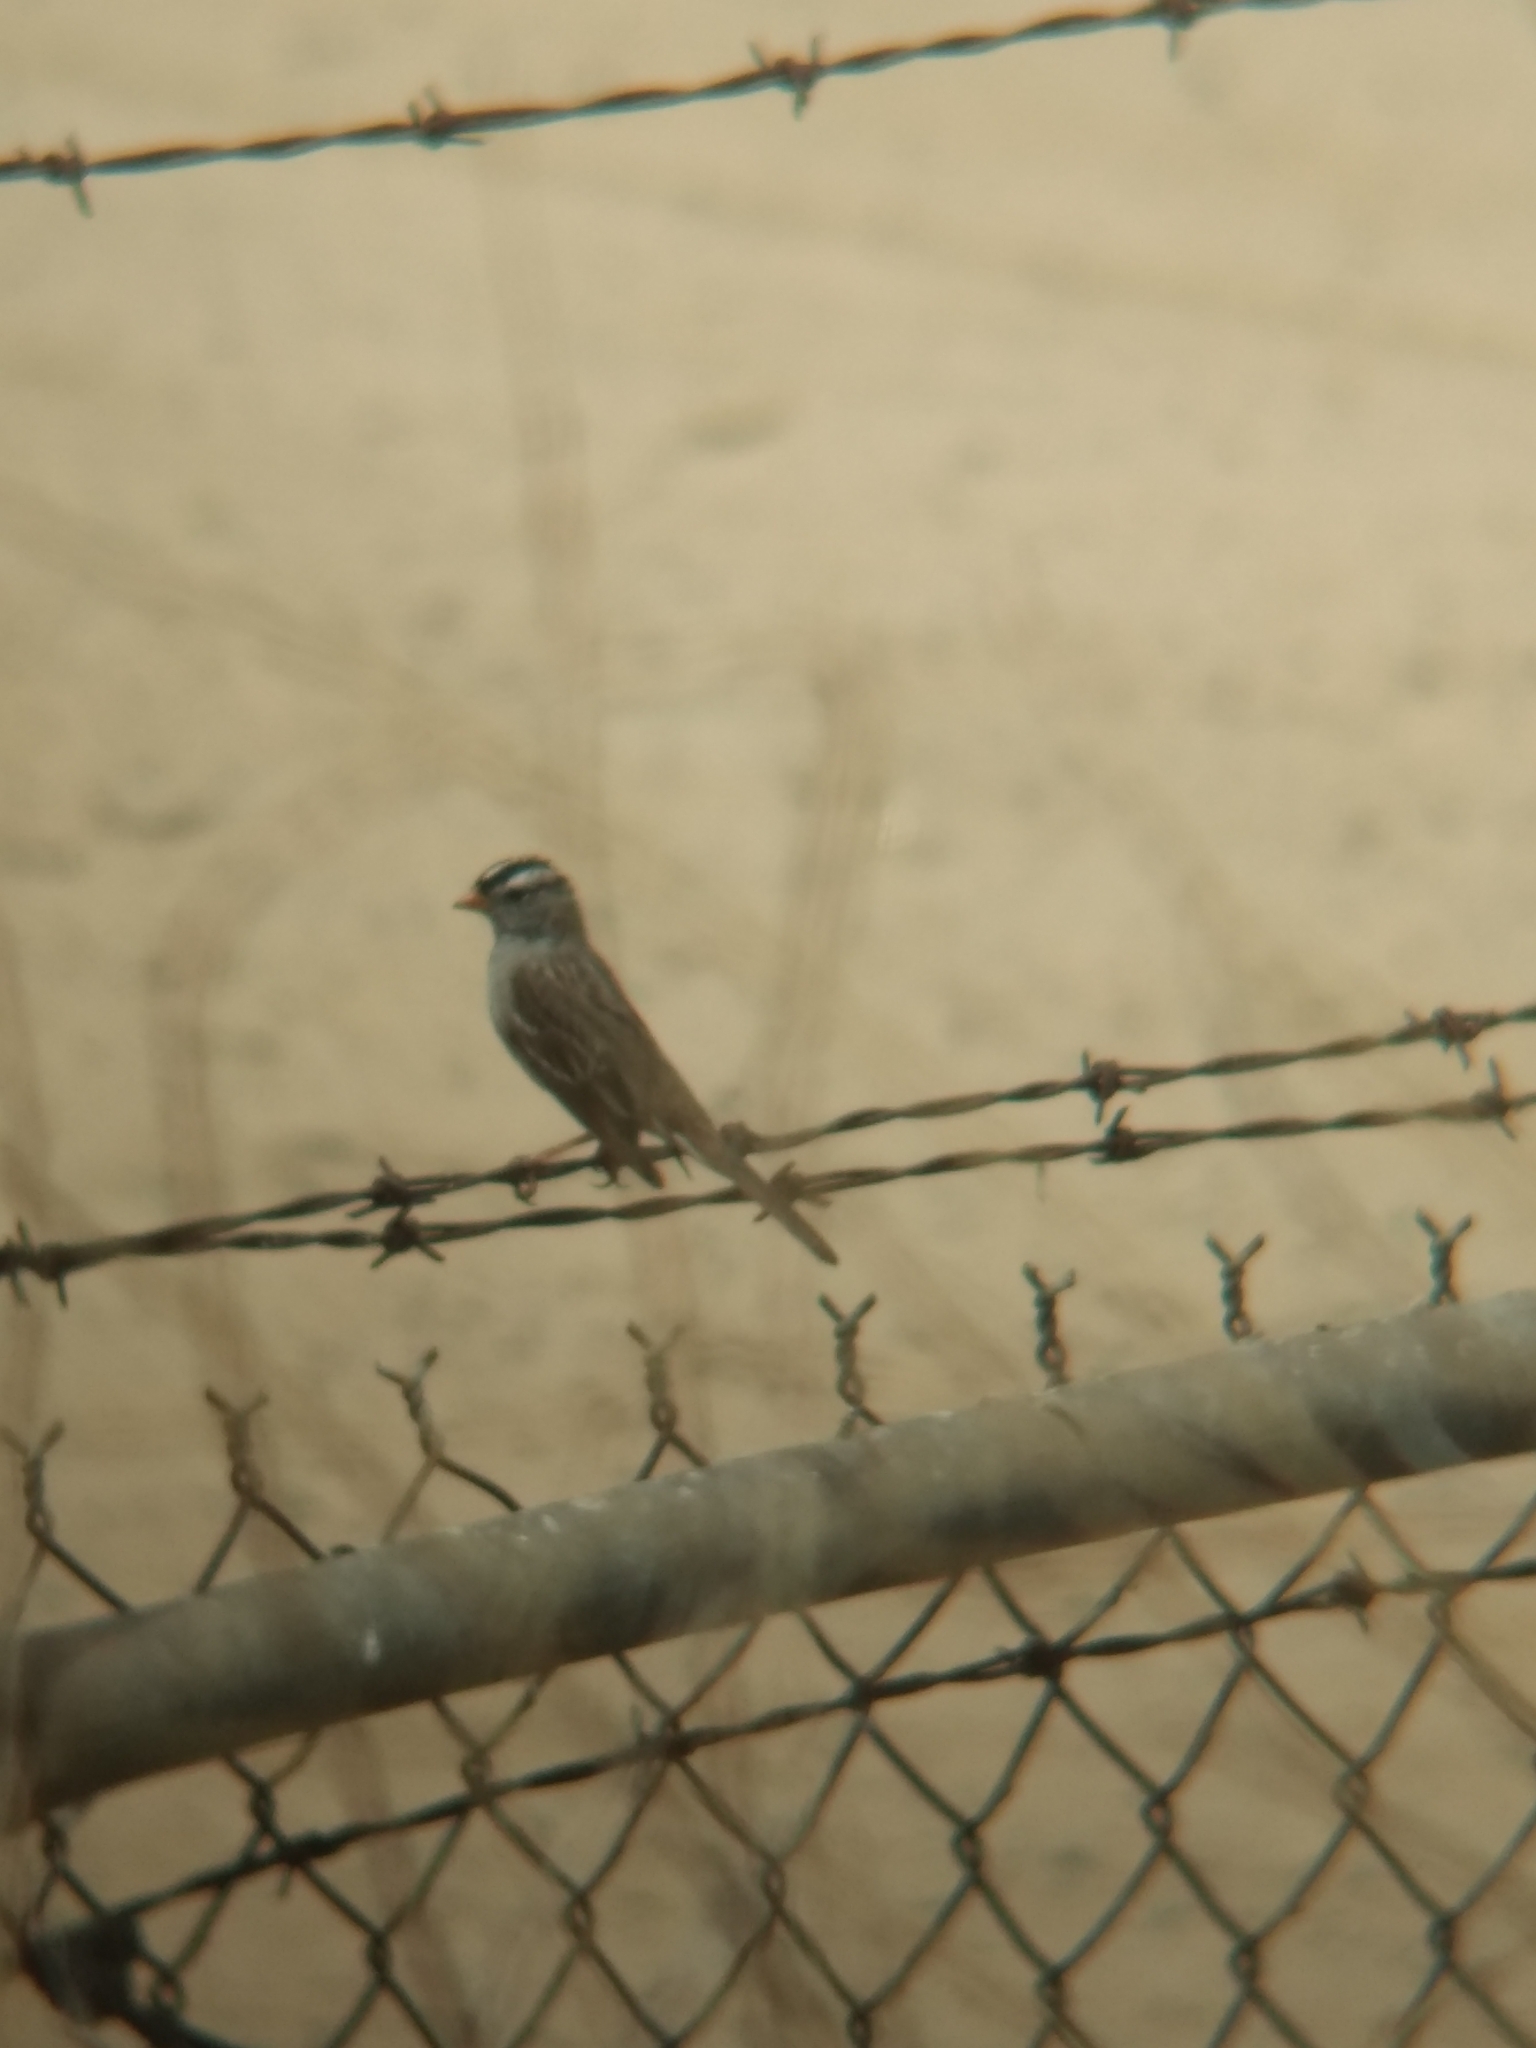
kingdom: Animalia
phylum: Chordata
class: Aves
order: Passeriformes
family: Passerellidae
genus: Zonotrichia
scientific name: Zonotrichia leucophrys
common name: White-crowned sparrow
